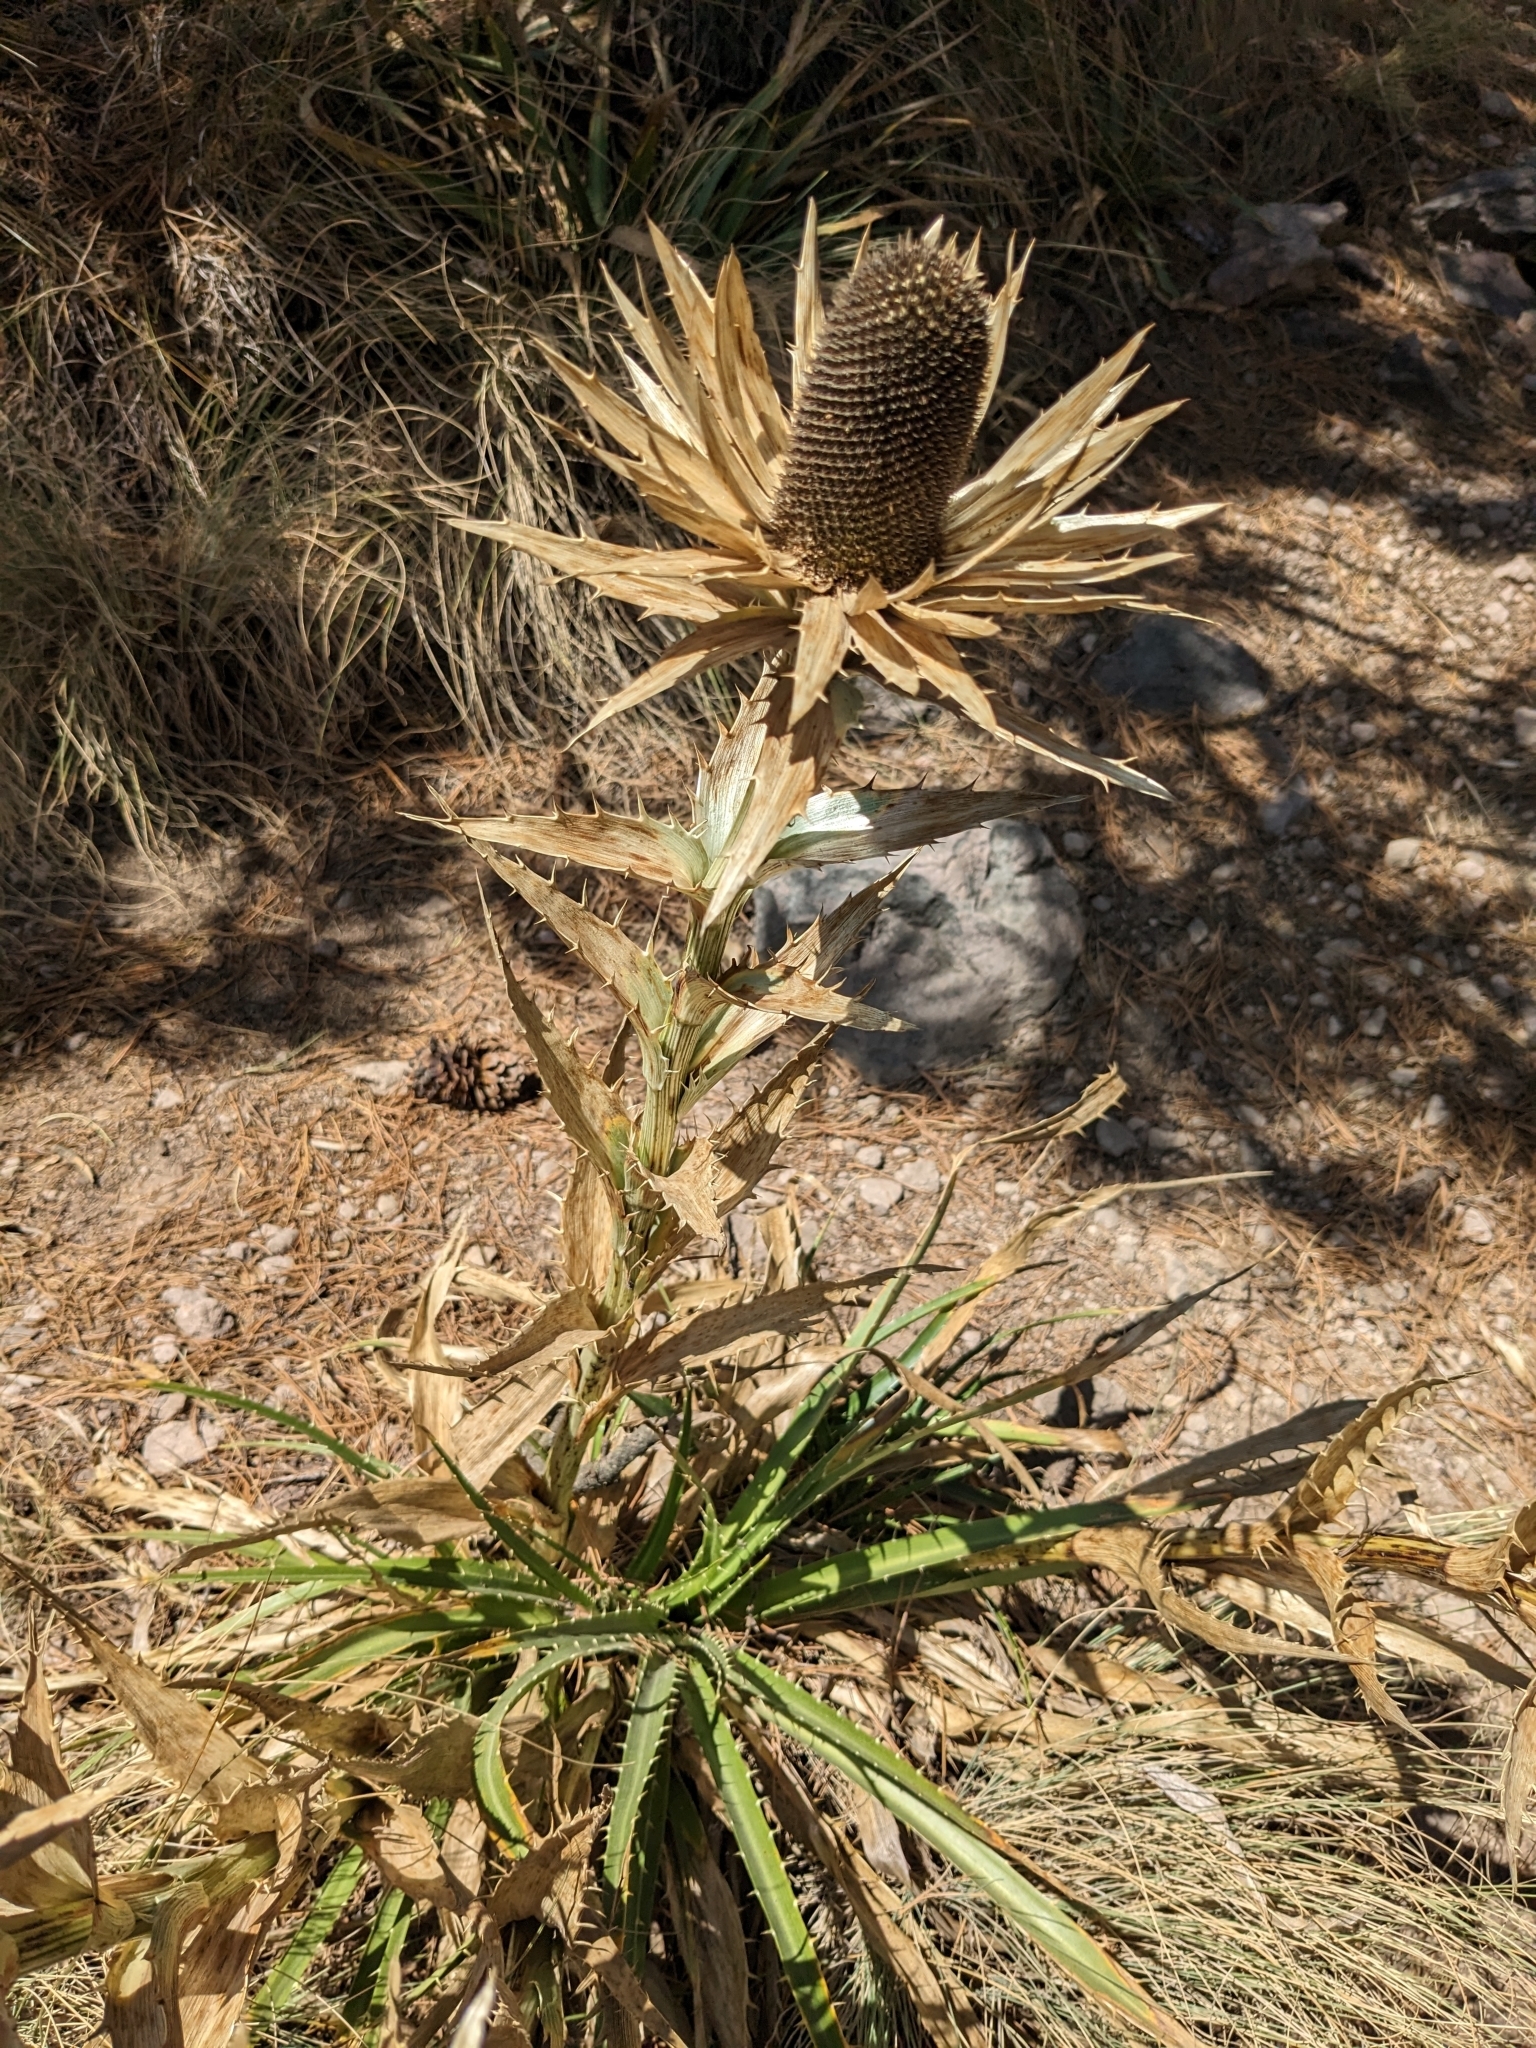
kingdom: Plantae
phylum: Tracheophyta
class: Magnoliopsida
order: Apiales
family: Apiaceae
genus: Eryngium
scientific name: Eryngium proteiflorum
